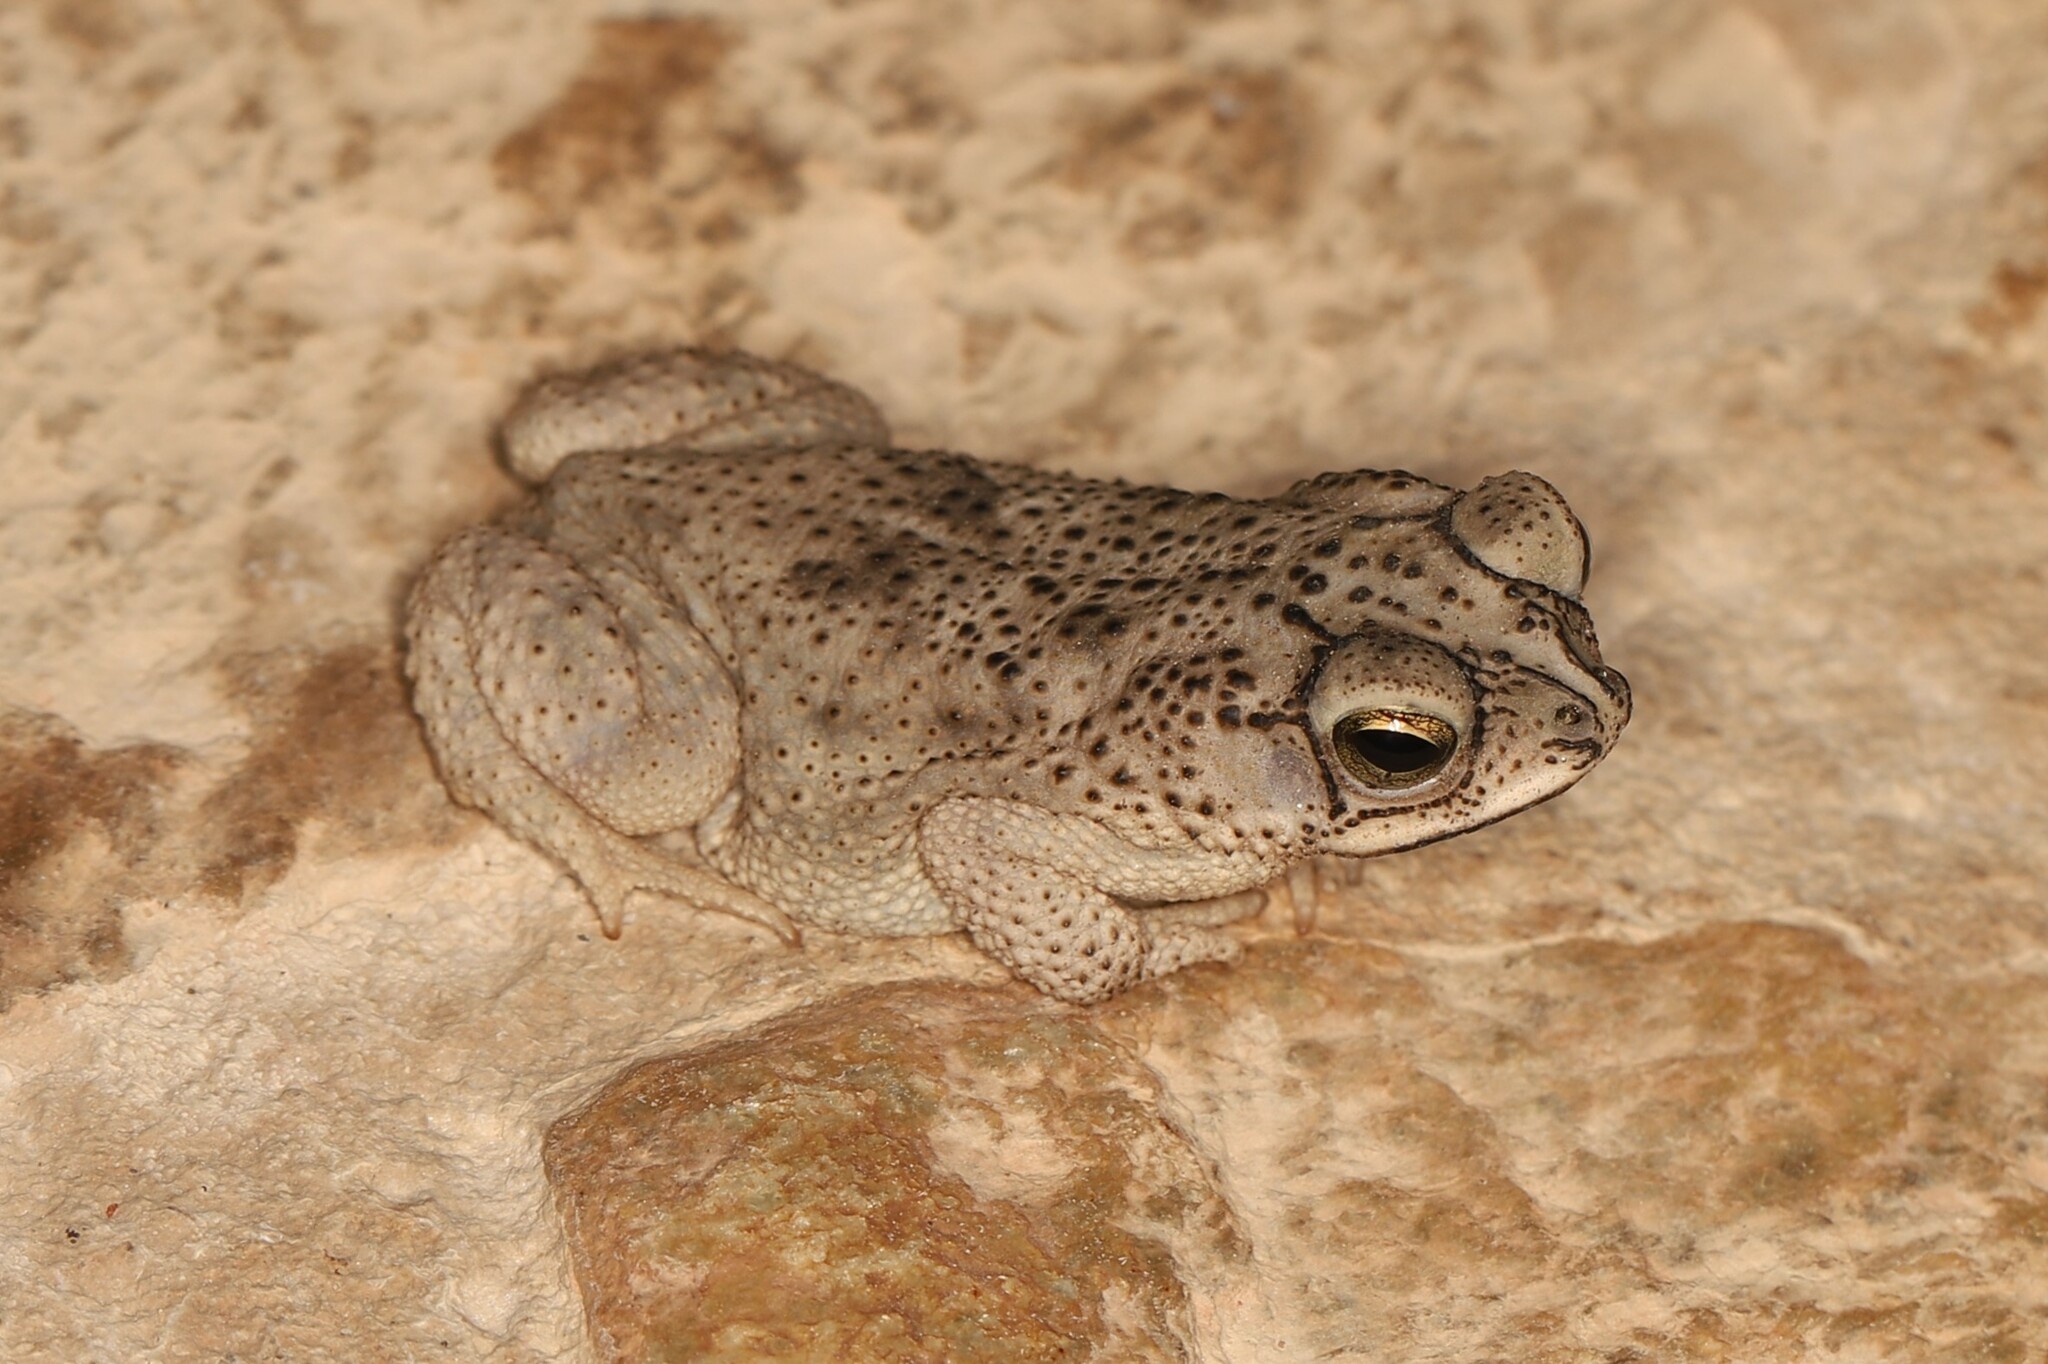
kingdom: Animalia
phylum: Chordata
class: Amphibia
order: Anura
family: Bufonidae
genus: Rhinella
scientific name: Rhinella major
